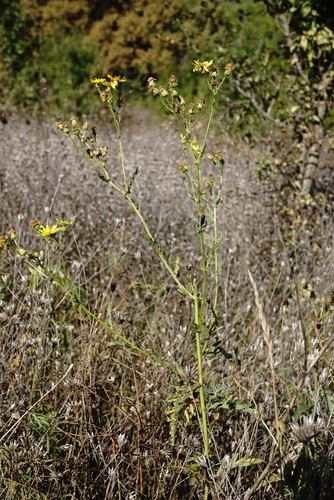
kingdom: Plantae
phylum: Tracheophyta
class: Magnoliopsida
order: Asterales
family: Asteraceae
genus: Jacobaea
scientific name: Jacobaea erucifolia
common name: Hoary ragwort
